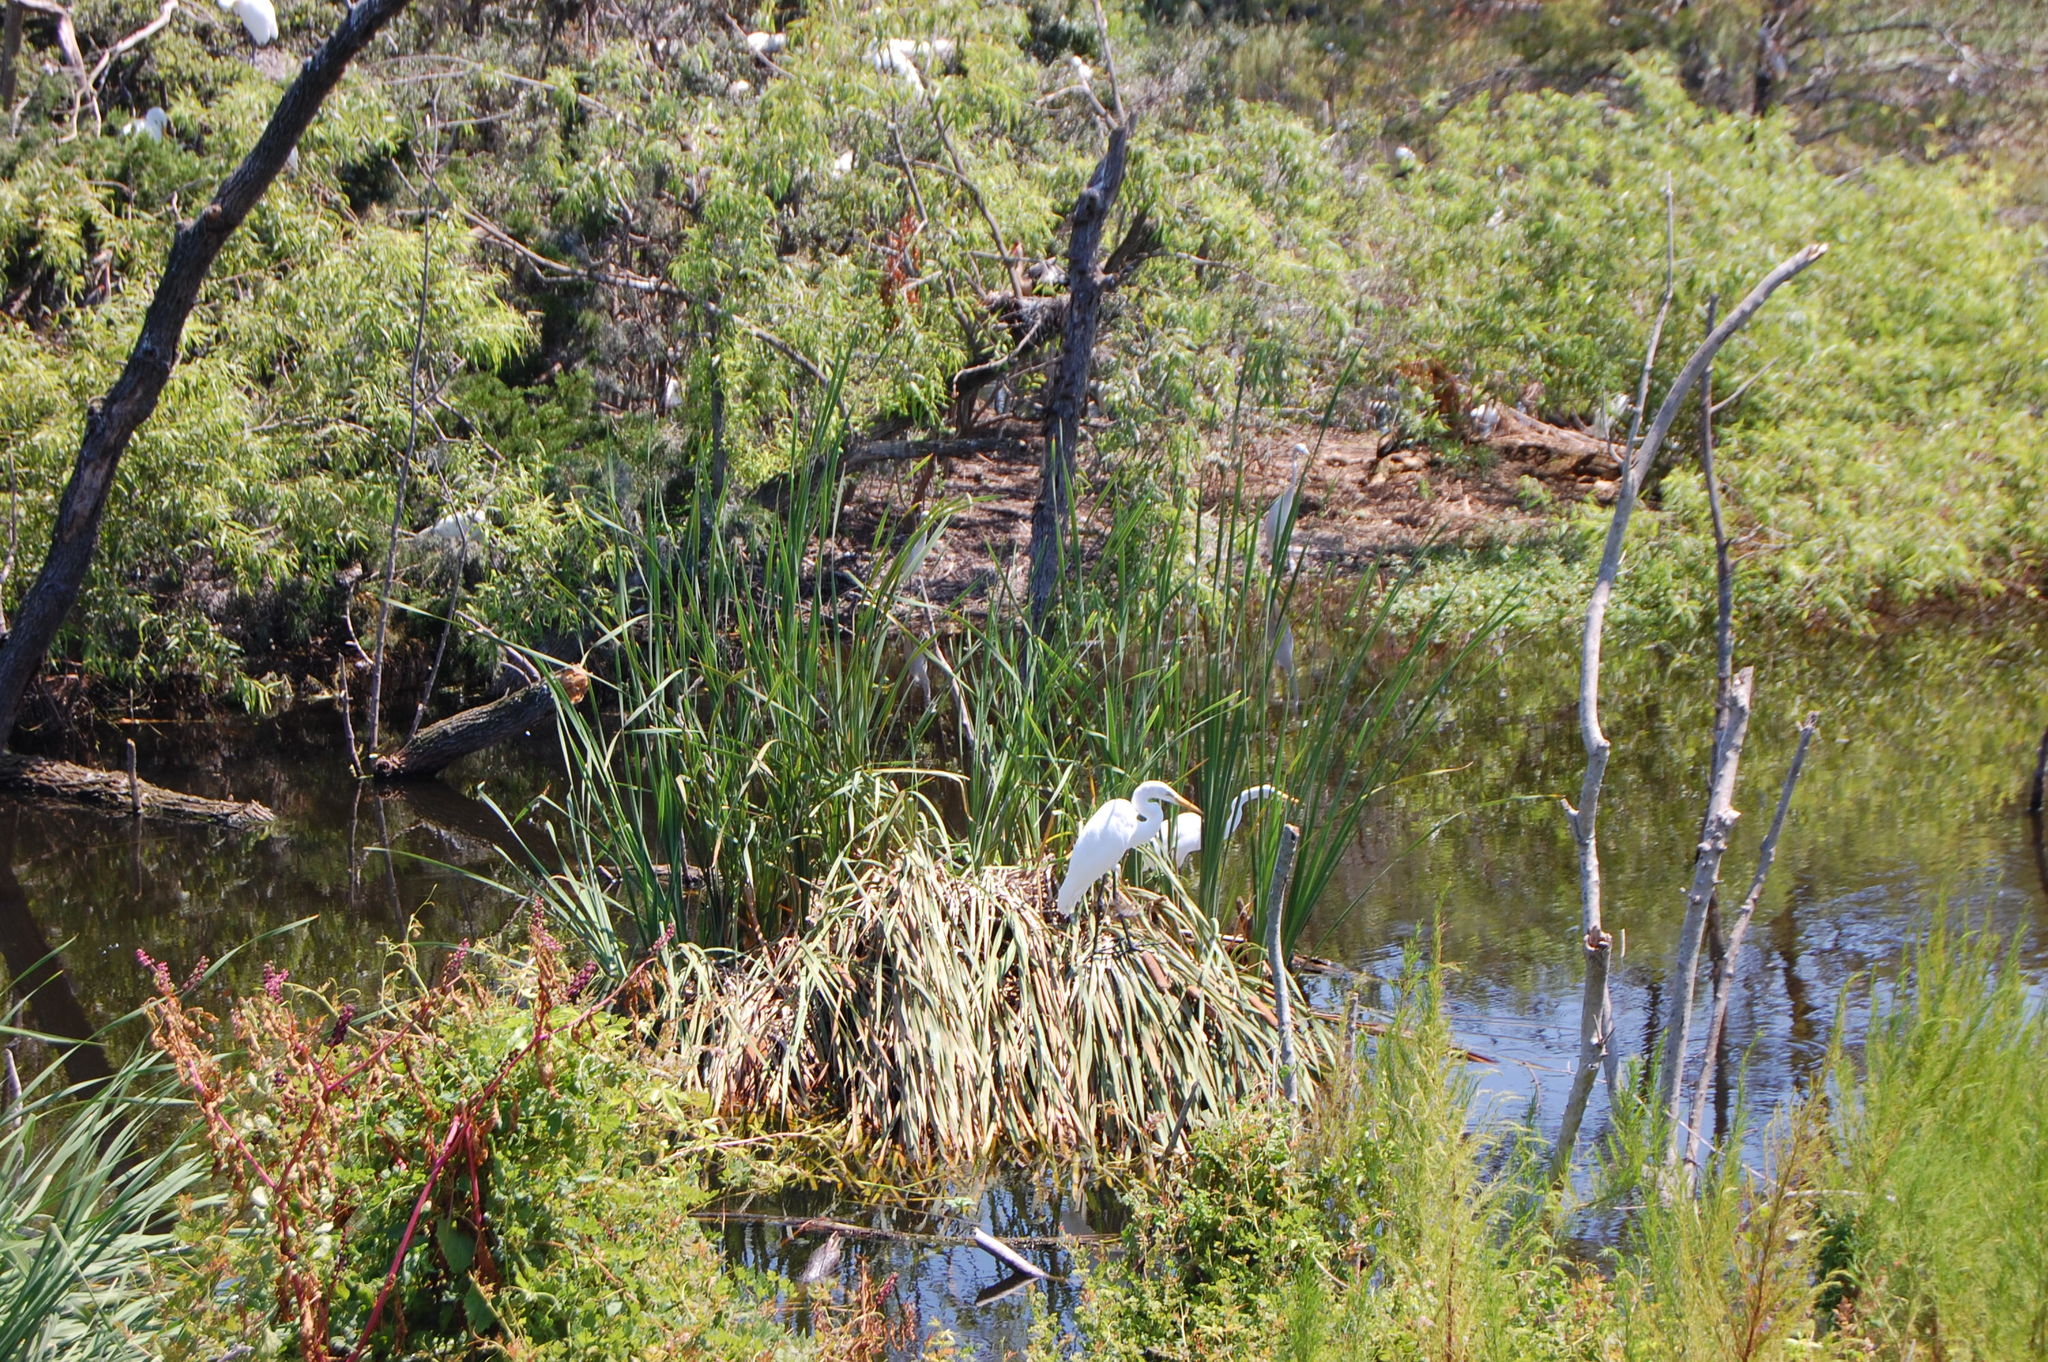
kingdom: Animalia
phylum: Chordata
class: Aves
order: Pelecaniformes
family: Ardeidae
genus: Ardea
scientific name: Ardea alba
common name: Great egret
